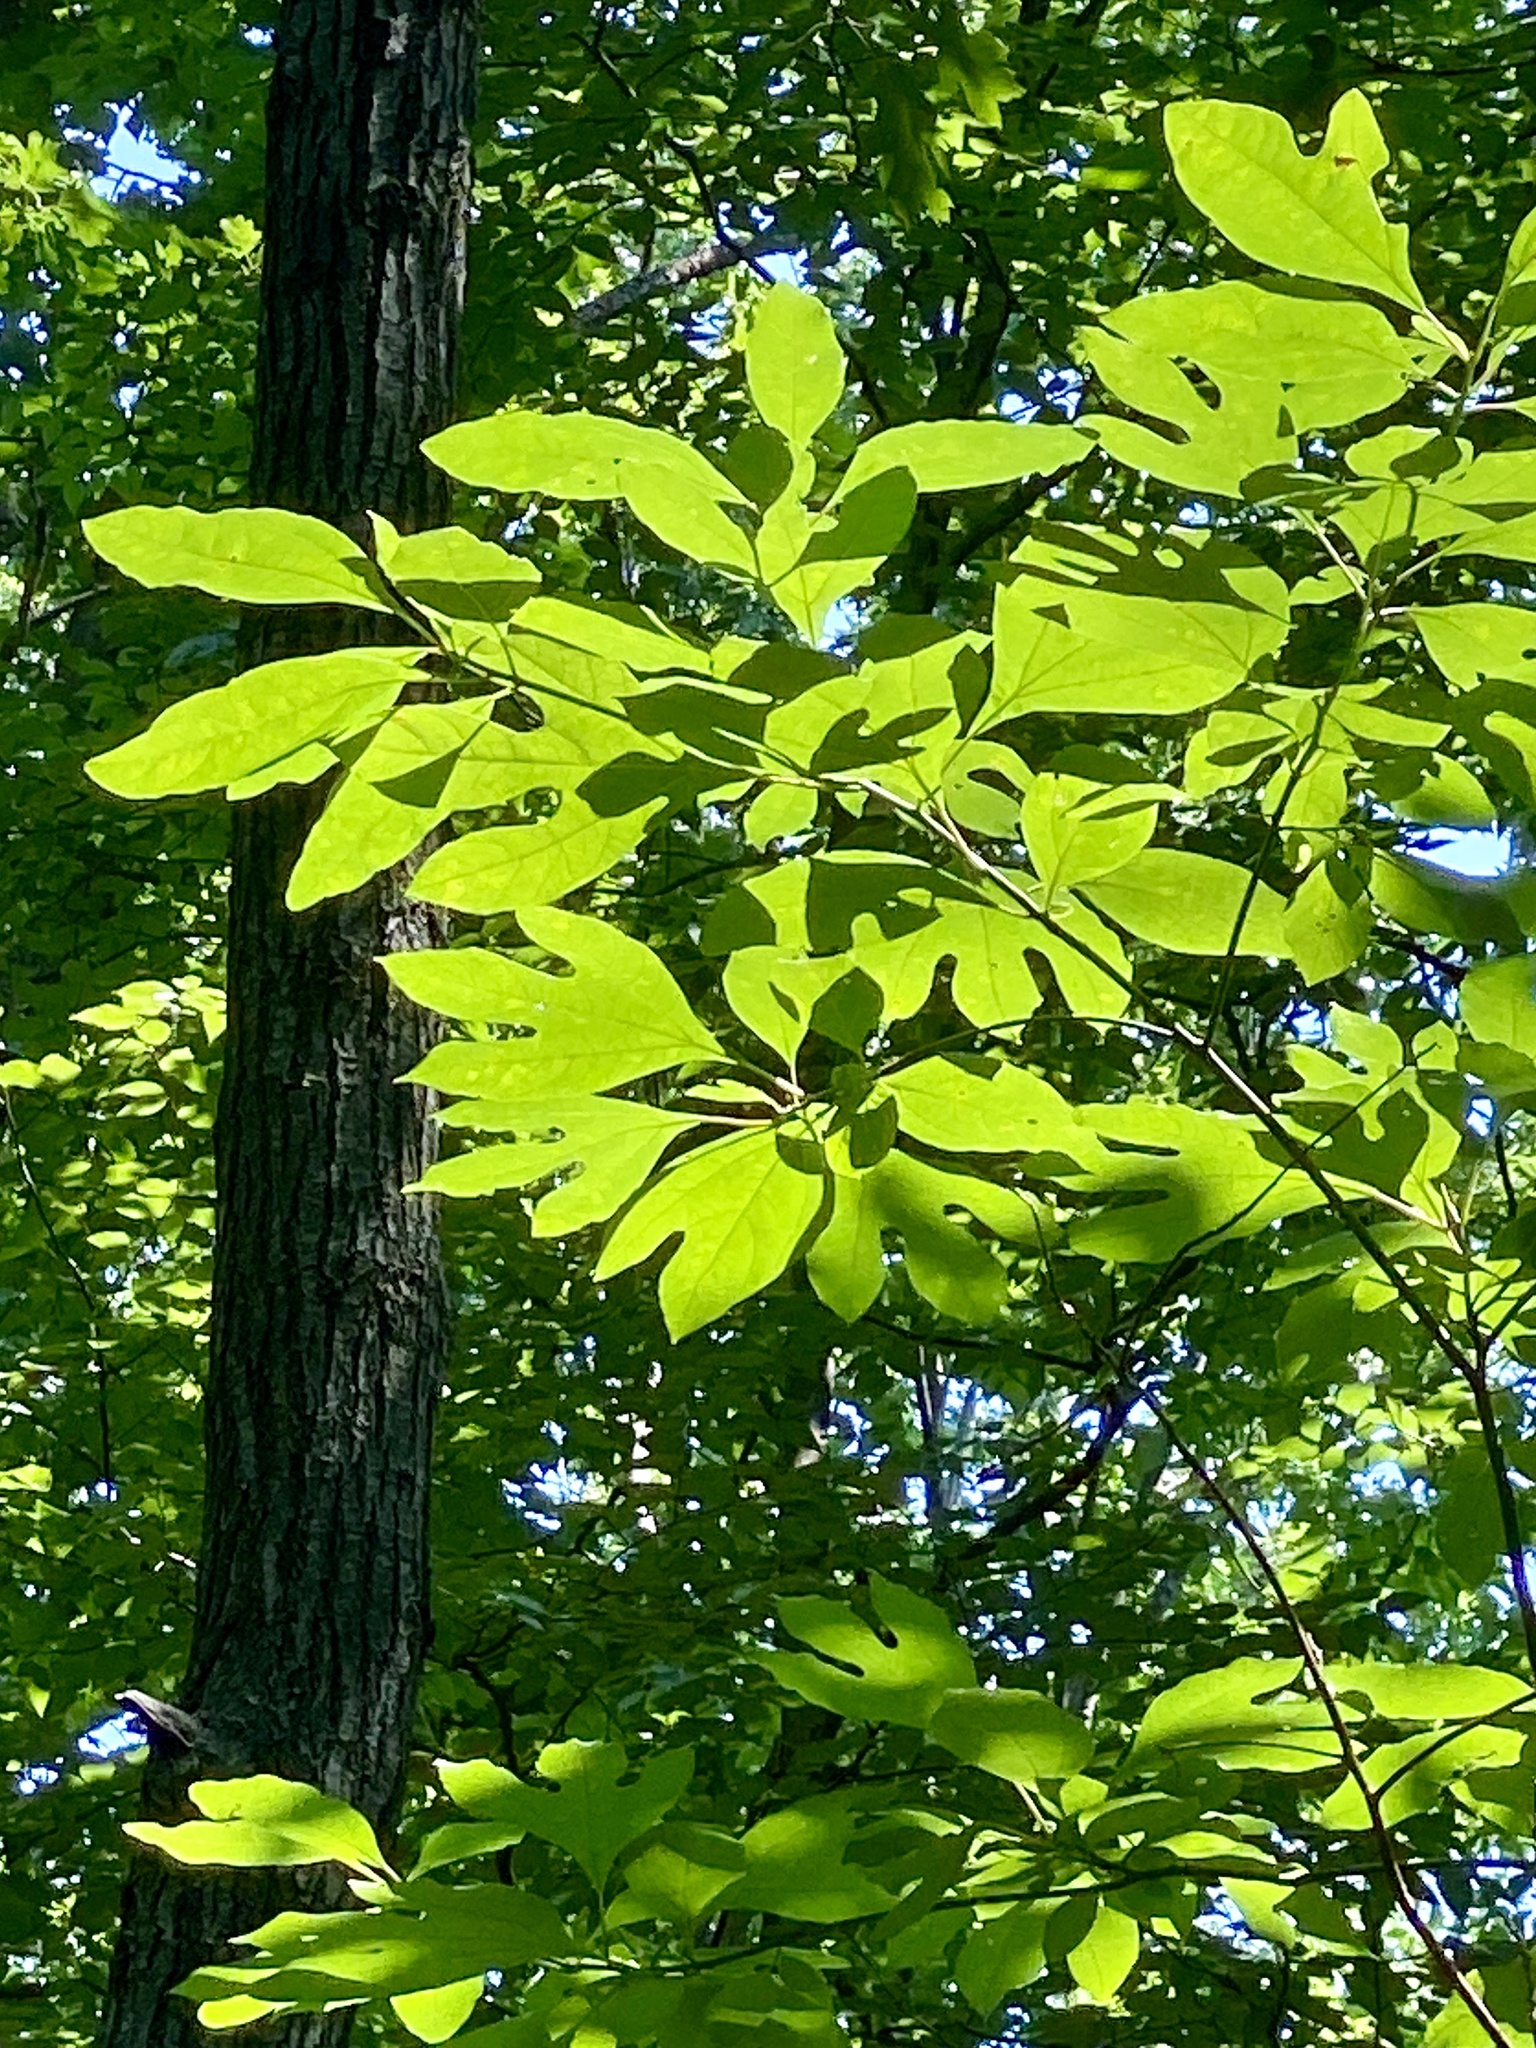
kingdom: Plantae
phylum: Tracheophyta
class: Magnoliopsida
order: Laurales
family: Lauraceae
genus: Sassafras
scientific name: Sassafras albidum
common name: Sassafras
